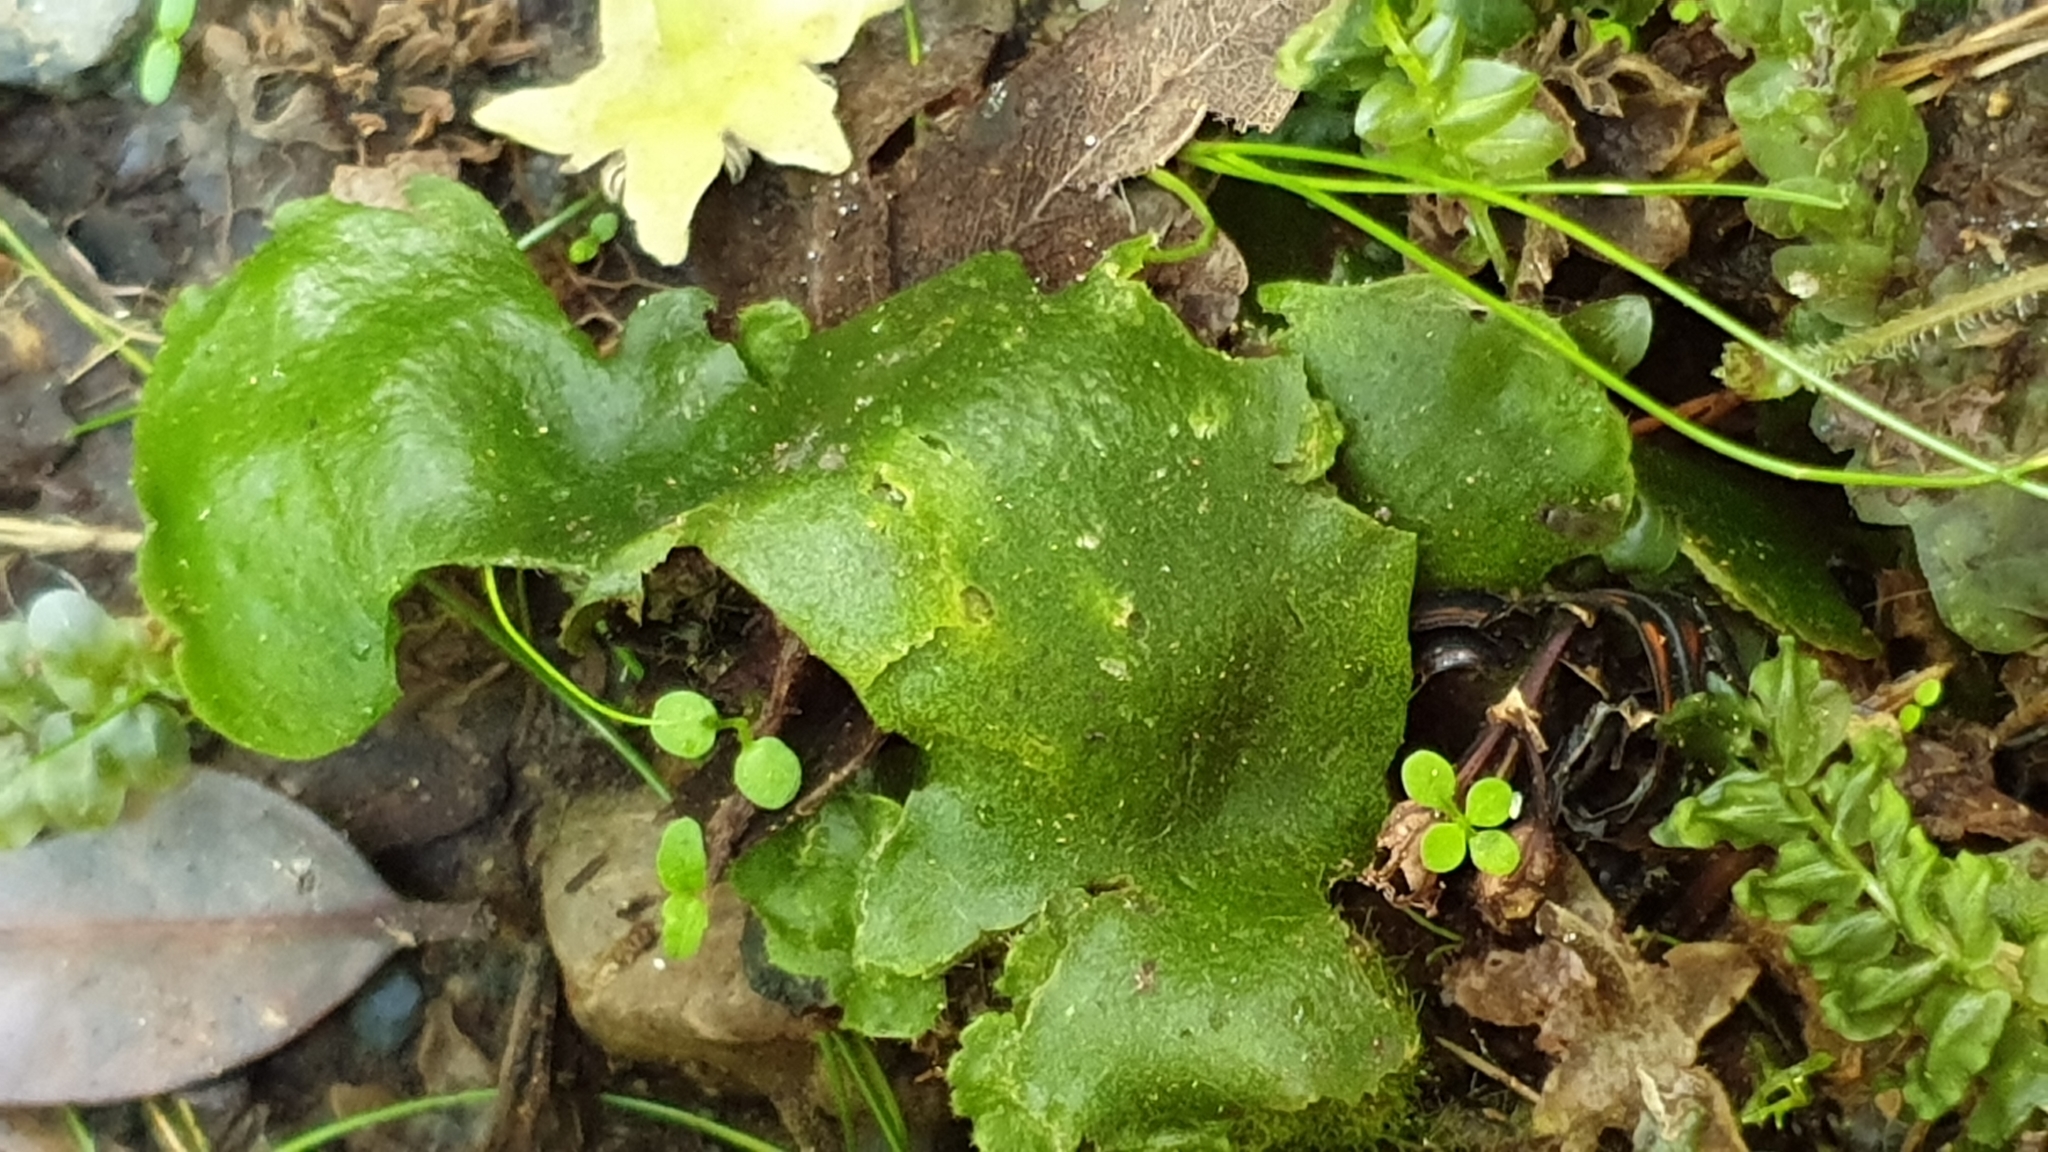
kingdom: Plantae
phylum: Marchantiophyta
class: Marchantiopsida
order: Marchantiales
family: Monocleaceae
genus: Monoclea
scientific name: Monoclea forsteri
